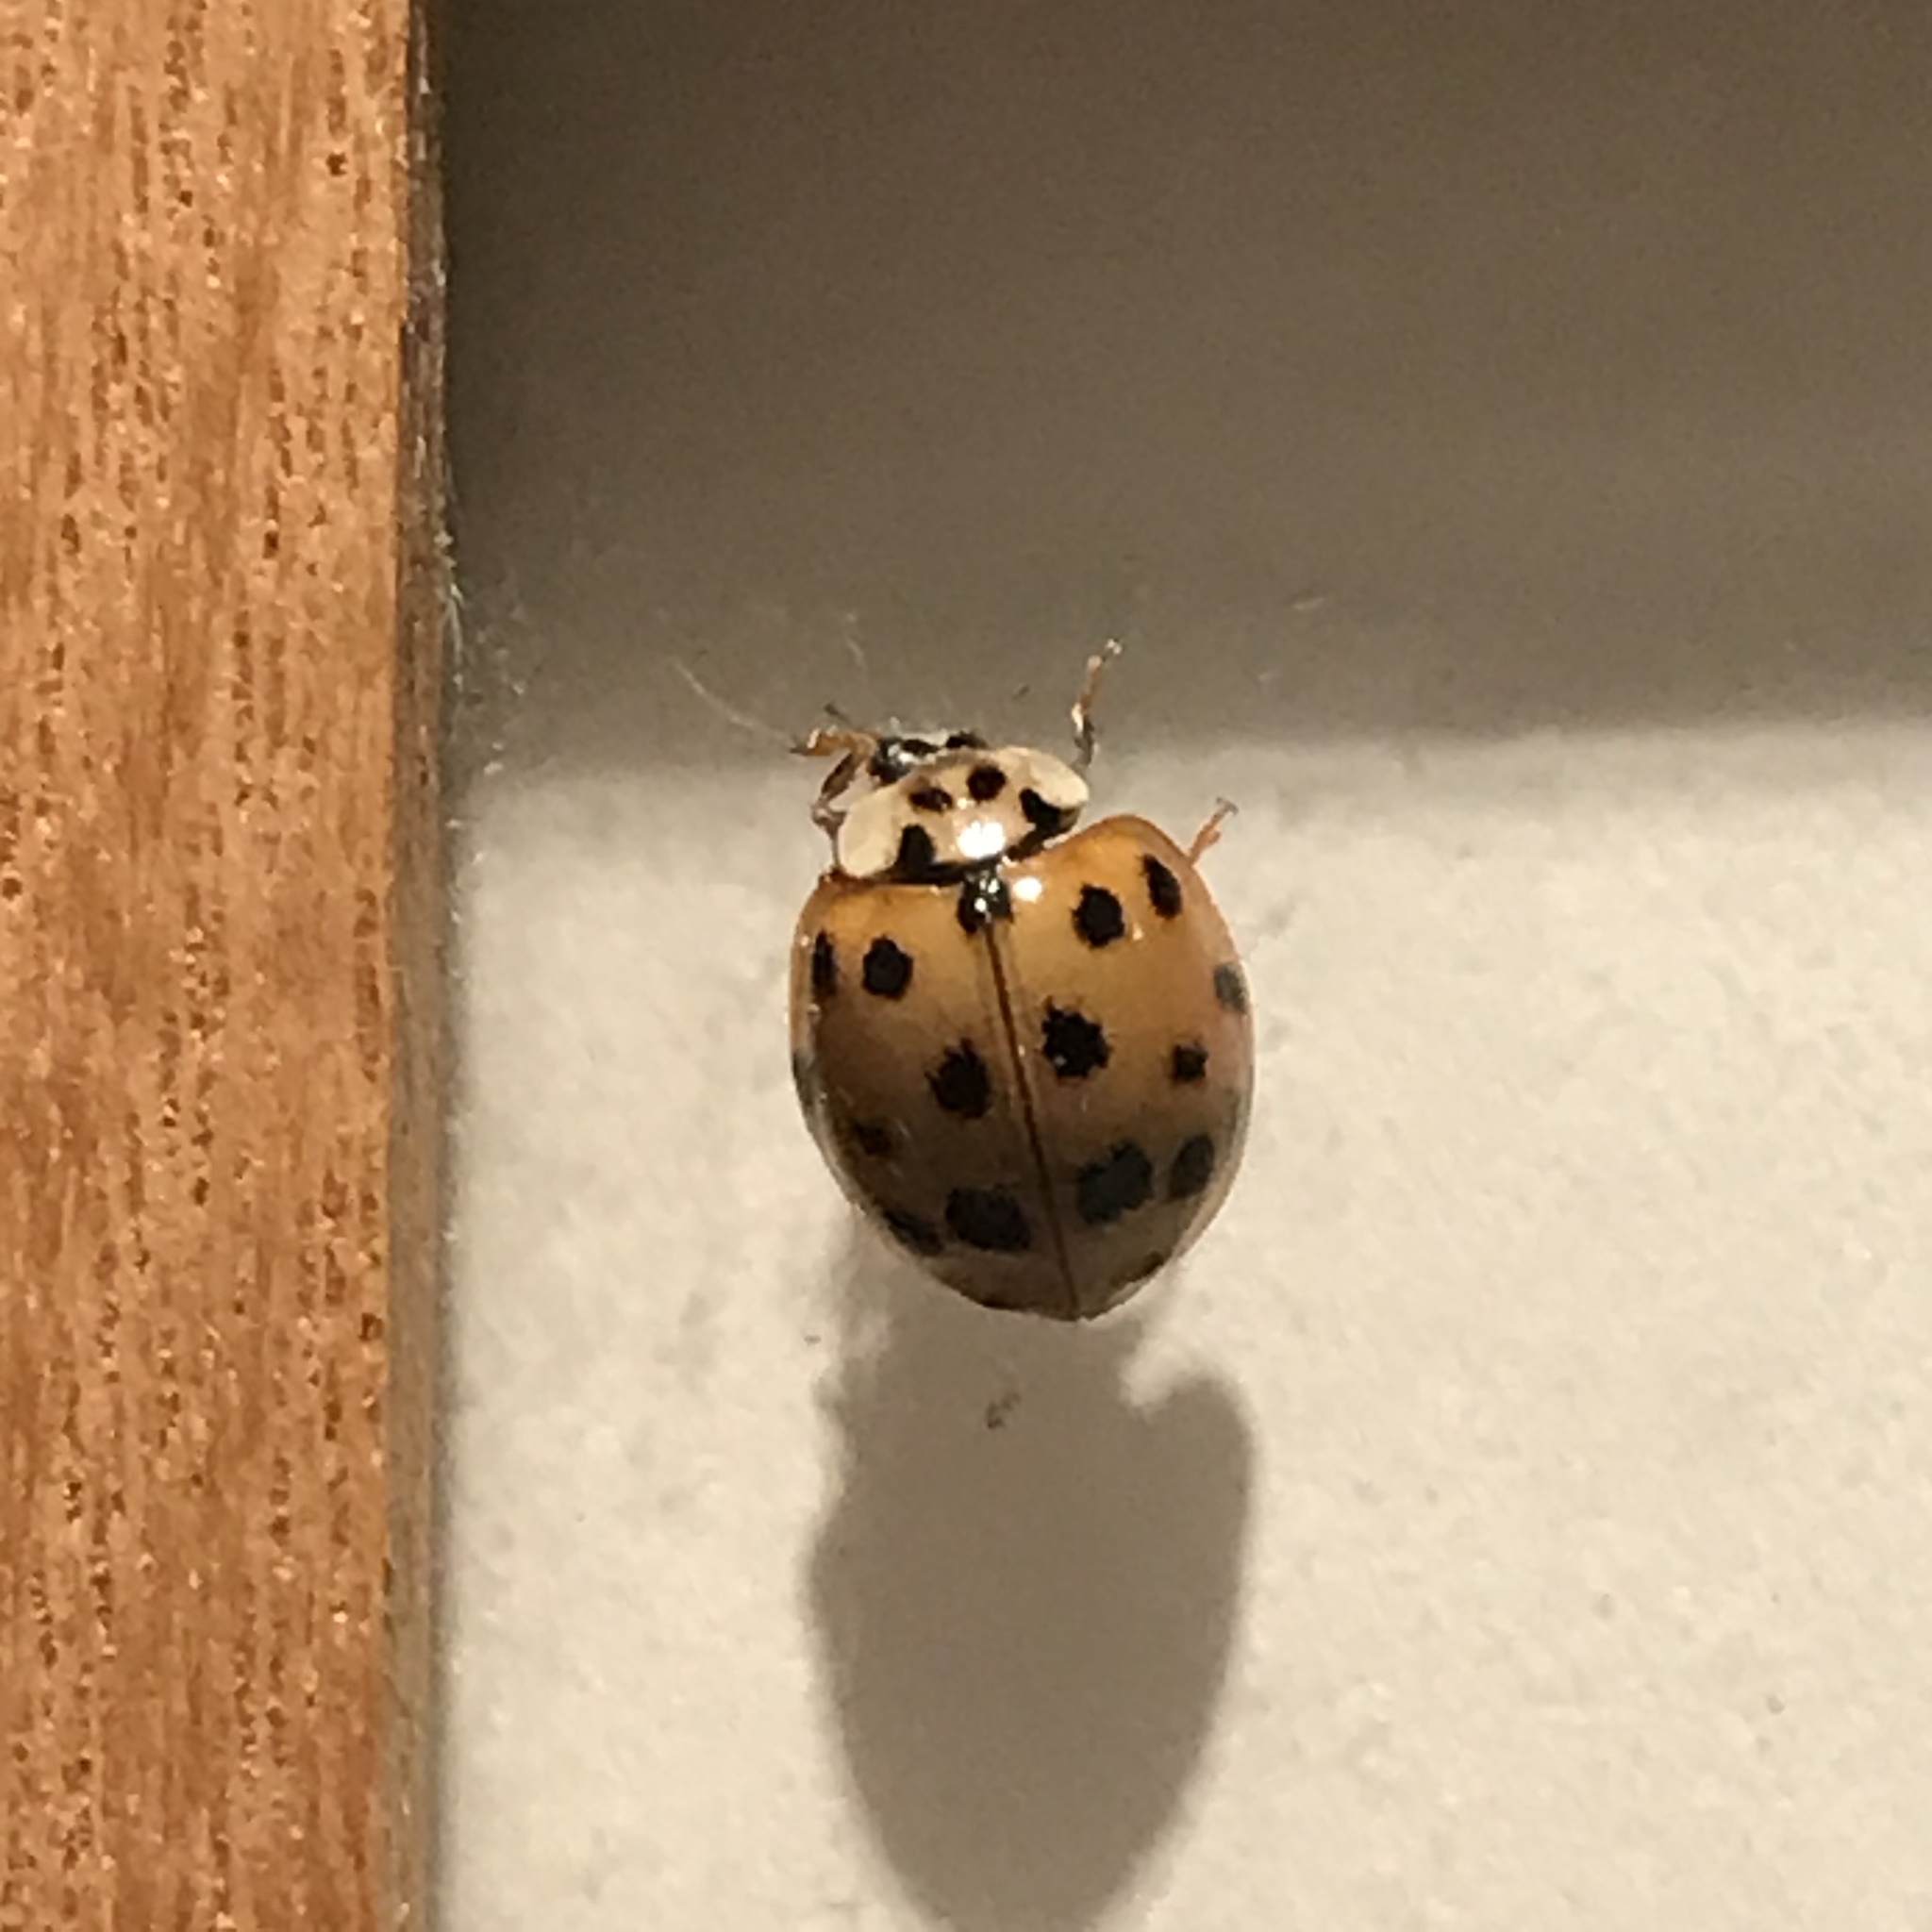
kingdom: Animalia
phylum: Arthropoda
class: Insecta
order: Coleoptera
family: Coccinellidae
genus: Harmonia
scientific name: Harmonia axyridis
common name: Harlequin ladybird
